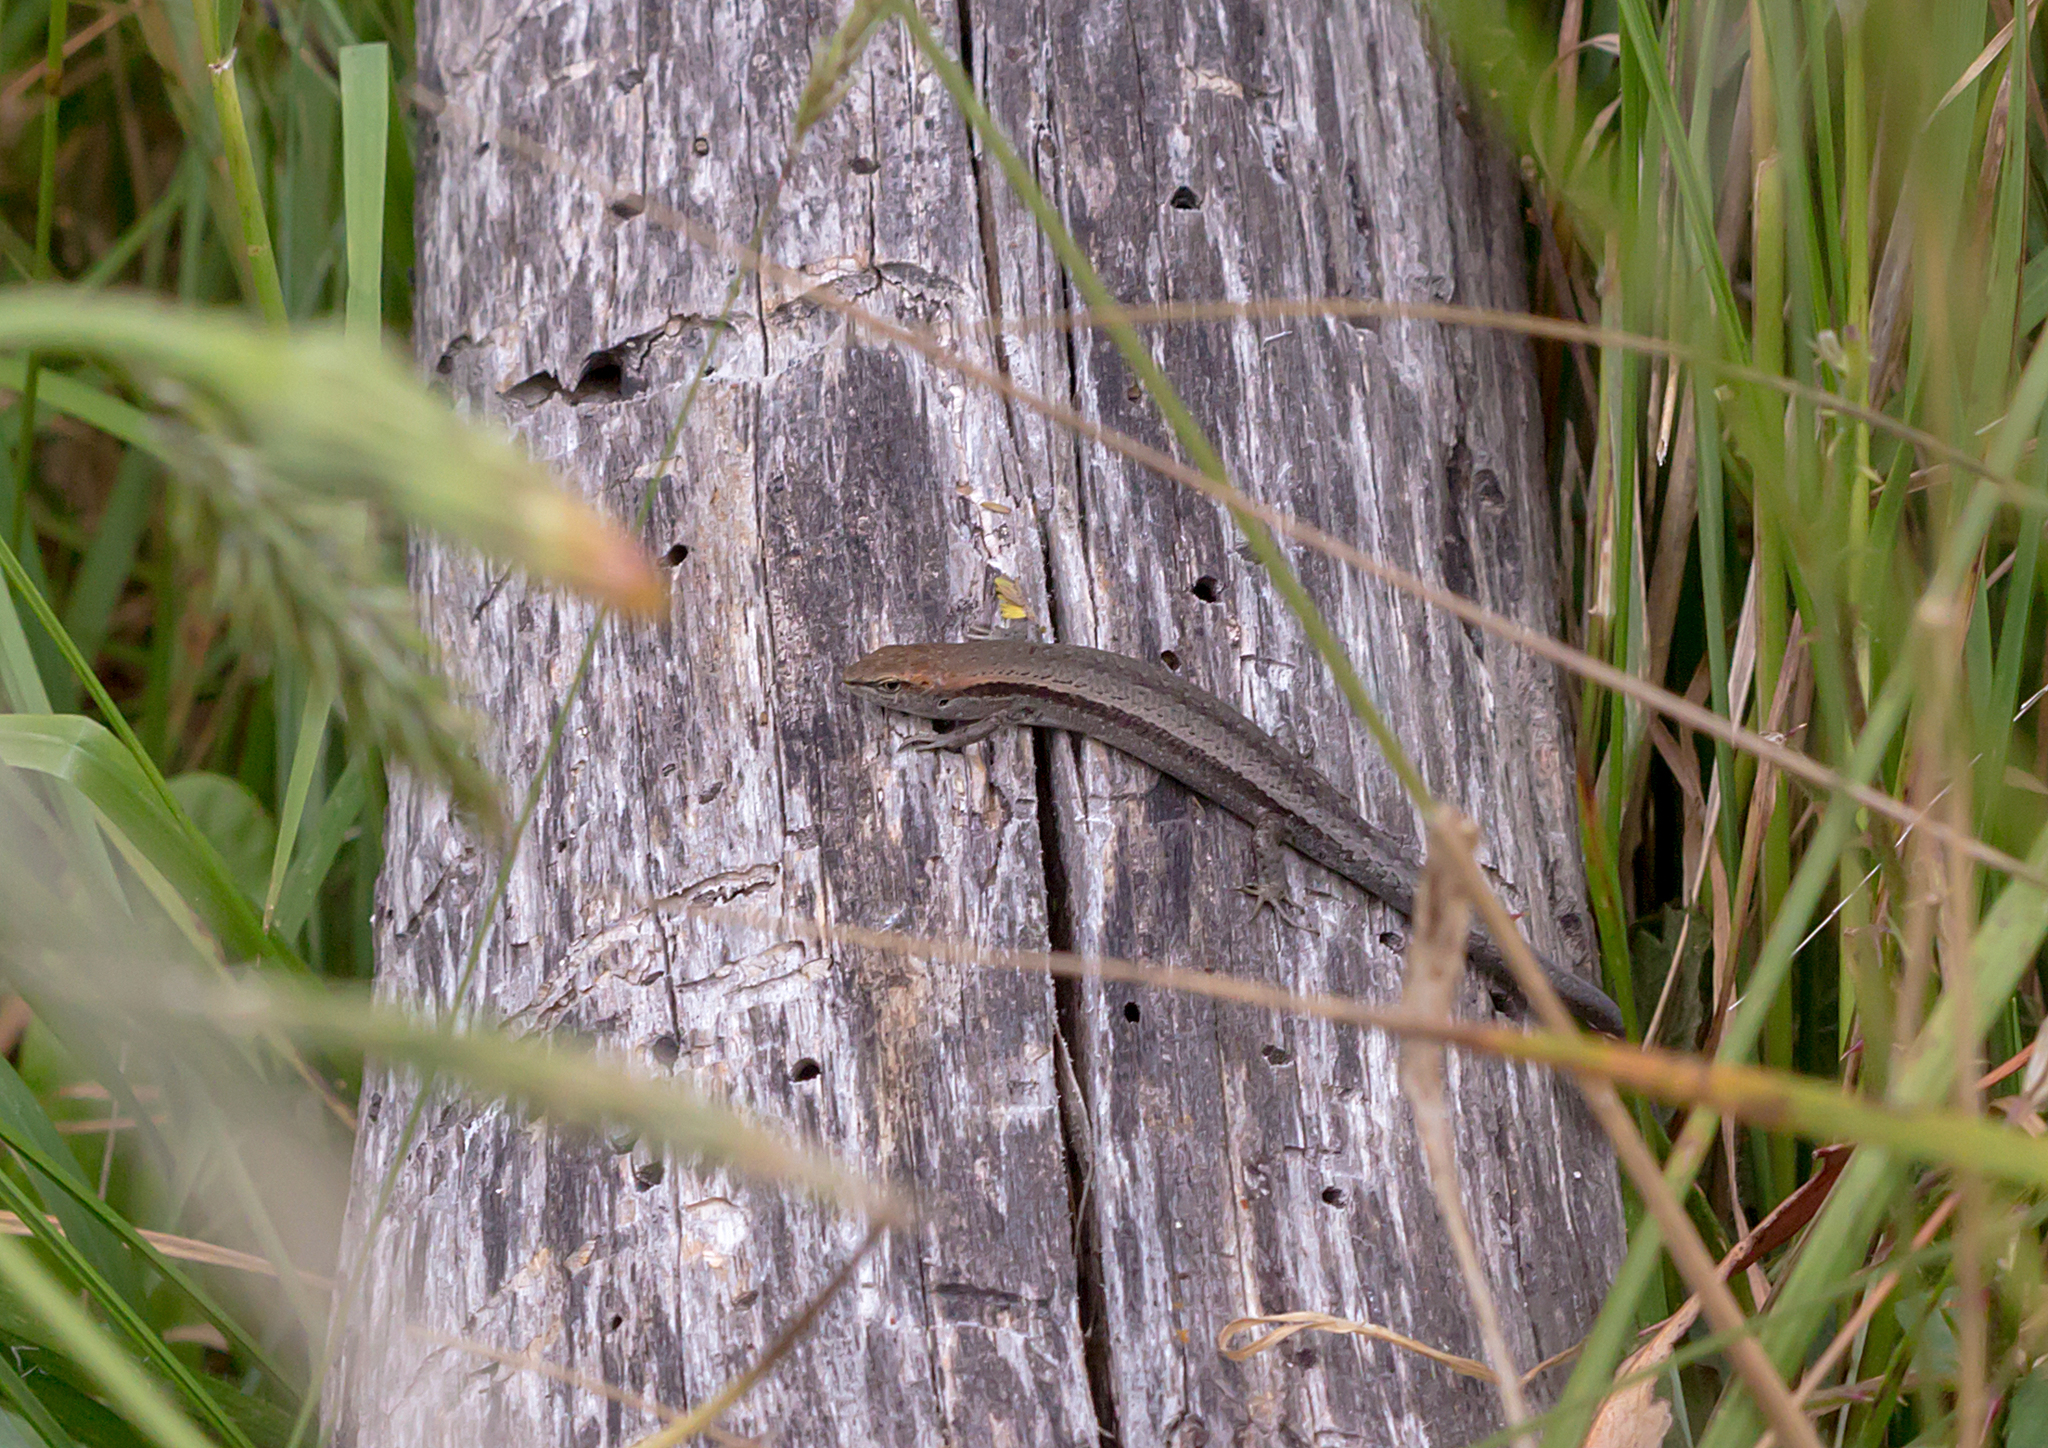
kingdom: Animalia
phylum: Chordata
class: Squamata
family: Scincidae
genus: Lampropholis
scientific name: Lampropholis guichenoti
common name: Garden skink
